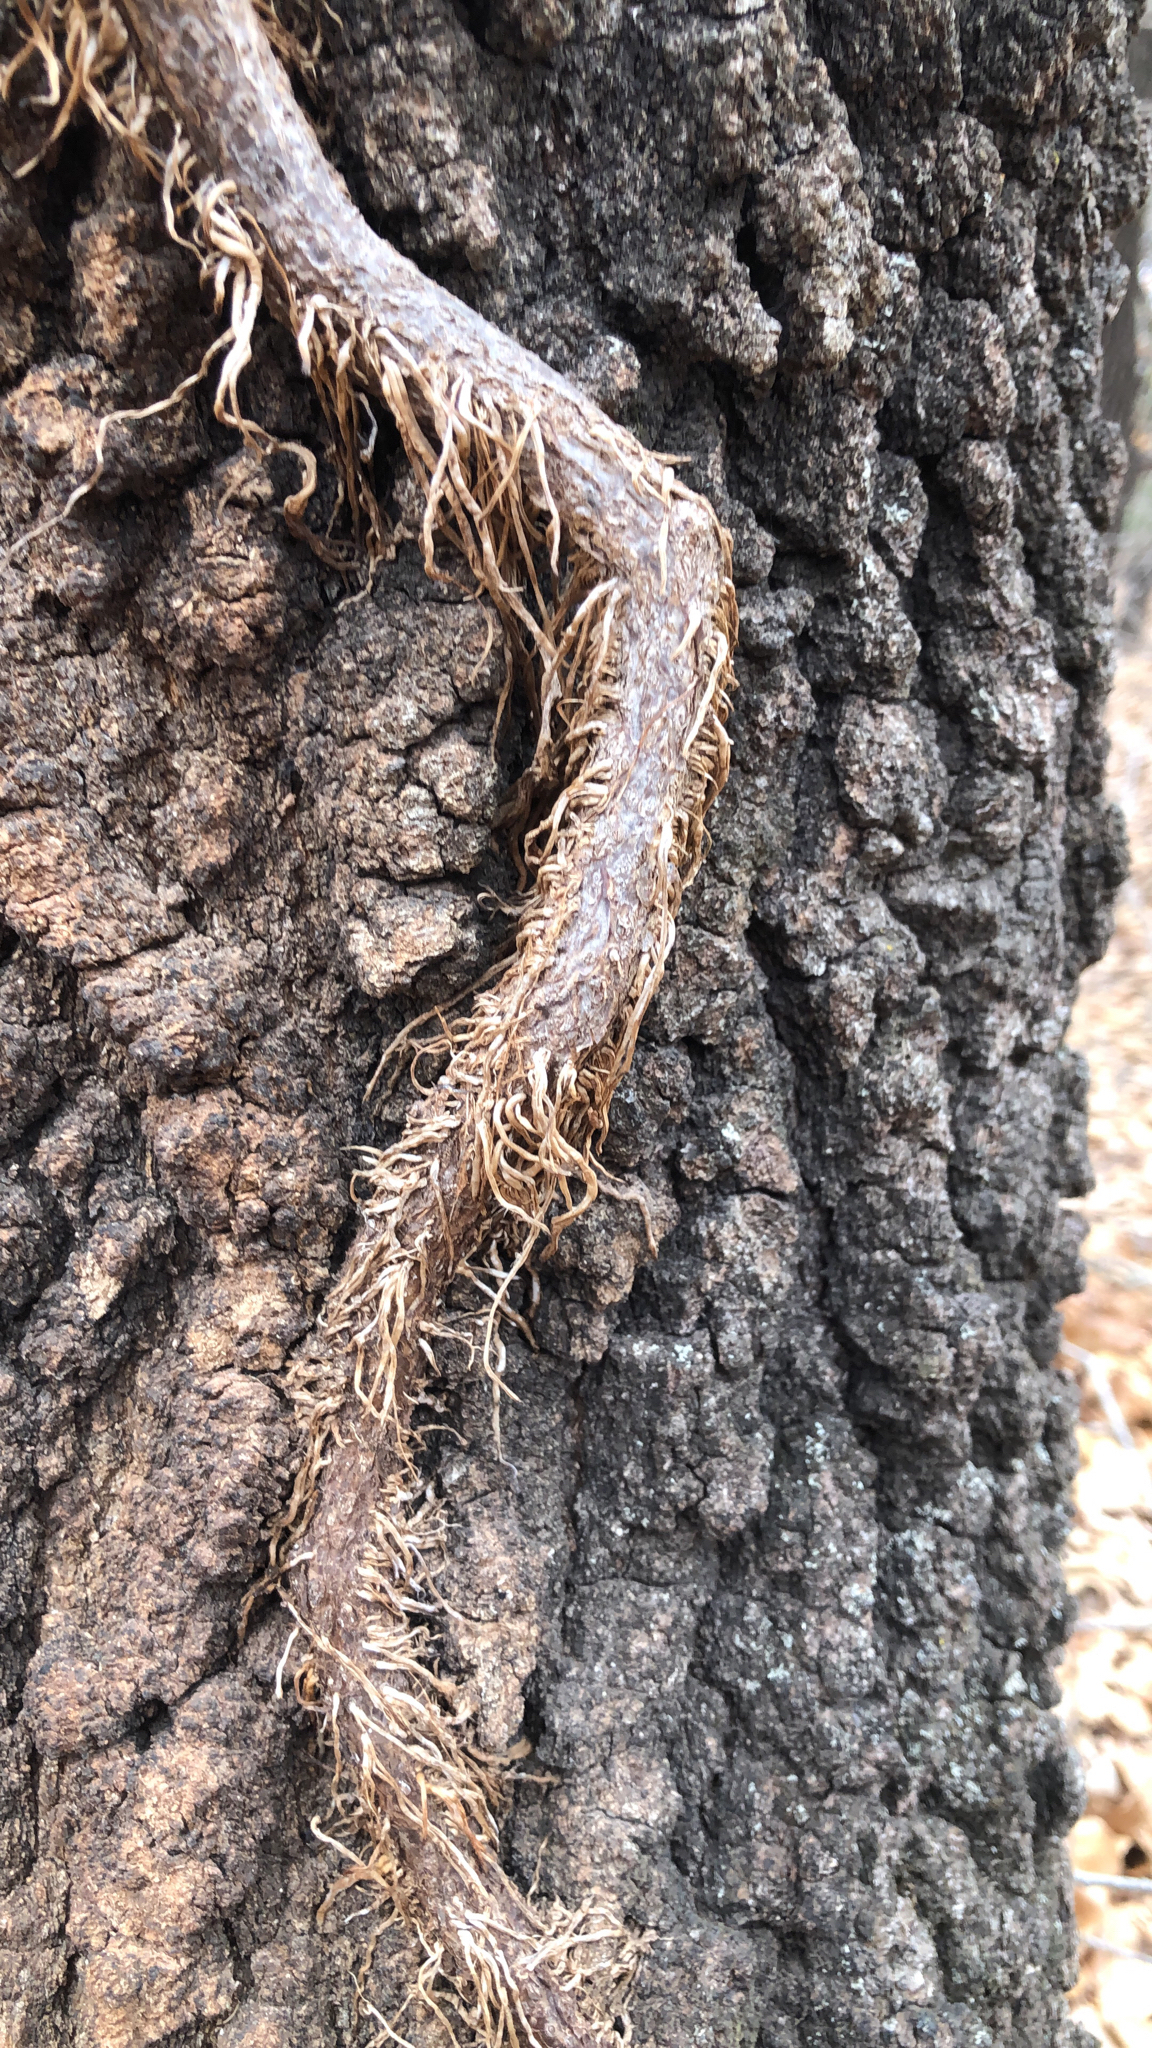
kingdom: Plantae
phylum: Tracheophyta
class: Magnoliopsida
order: Sapindales
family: Anacardiaceae
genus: Toxicodendron
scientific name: Toxicodendron radicans
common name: Poison ivy
